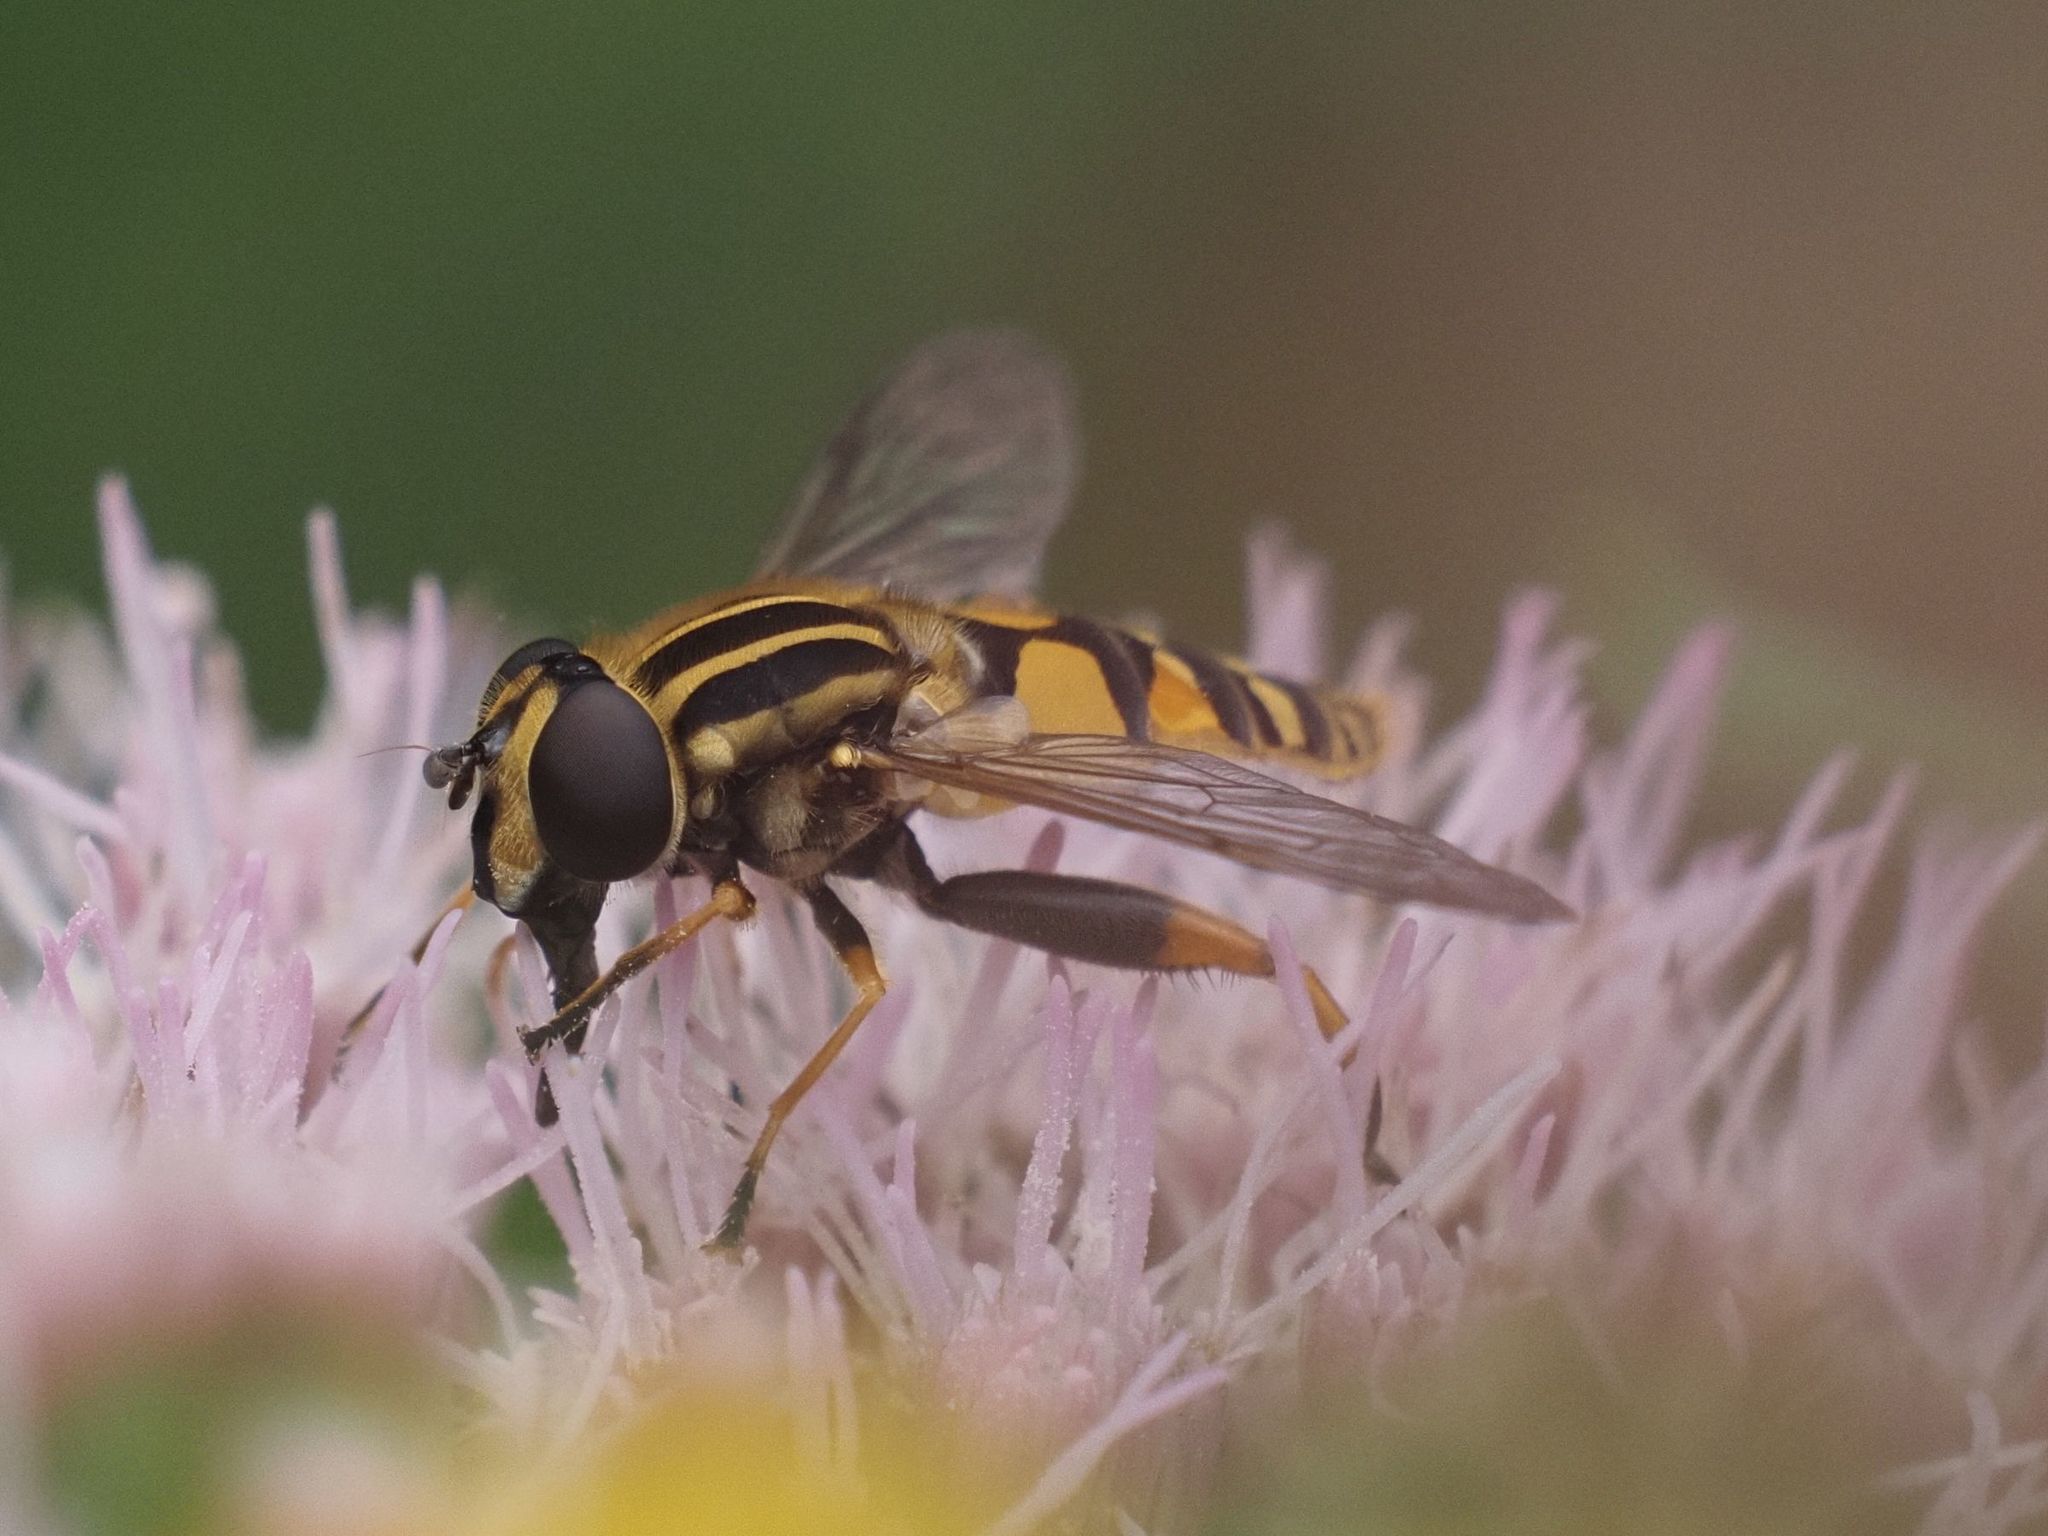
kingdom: Animalia
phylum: Arthropoda
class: Insecta
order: Diptera
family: Syrphidae
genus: Helophilus
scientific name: Helophilus pendulus
